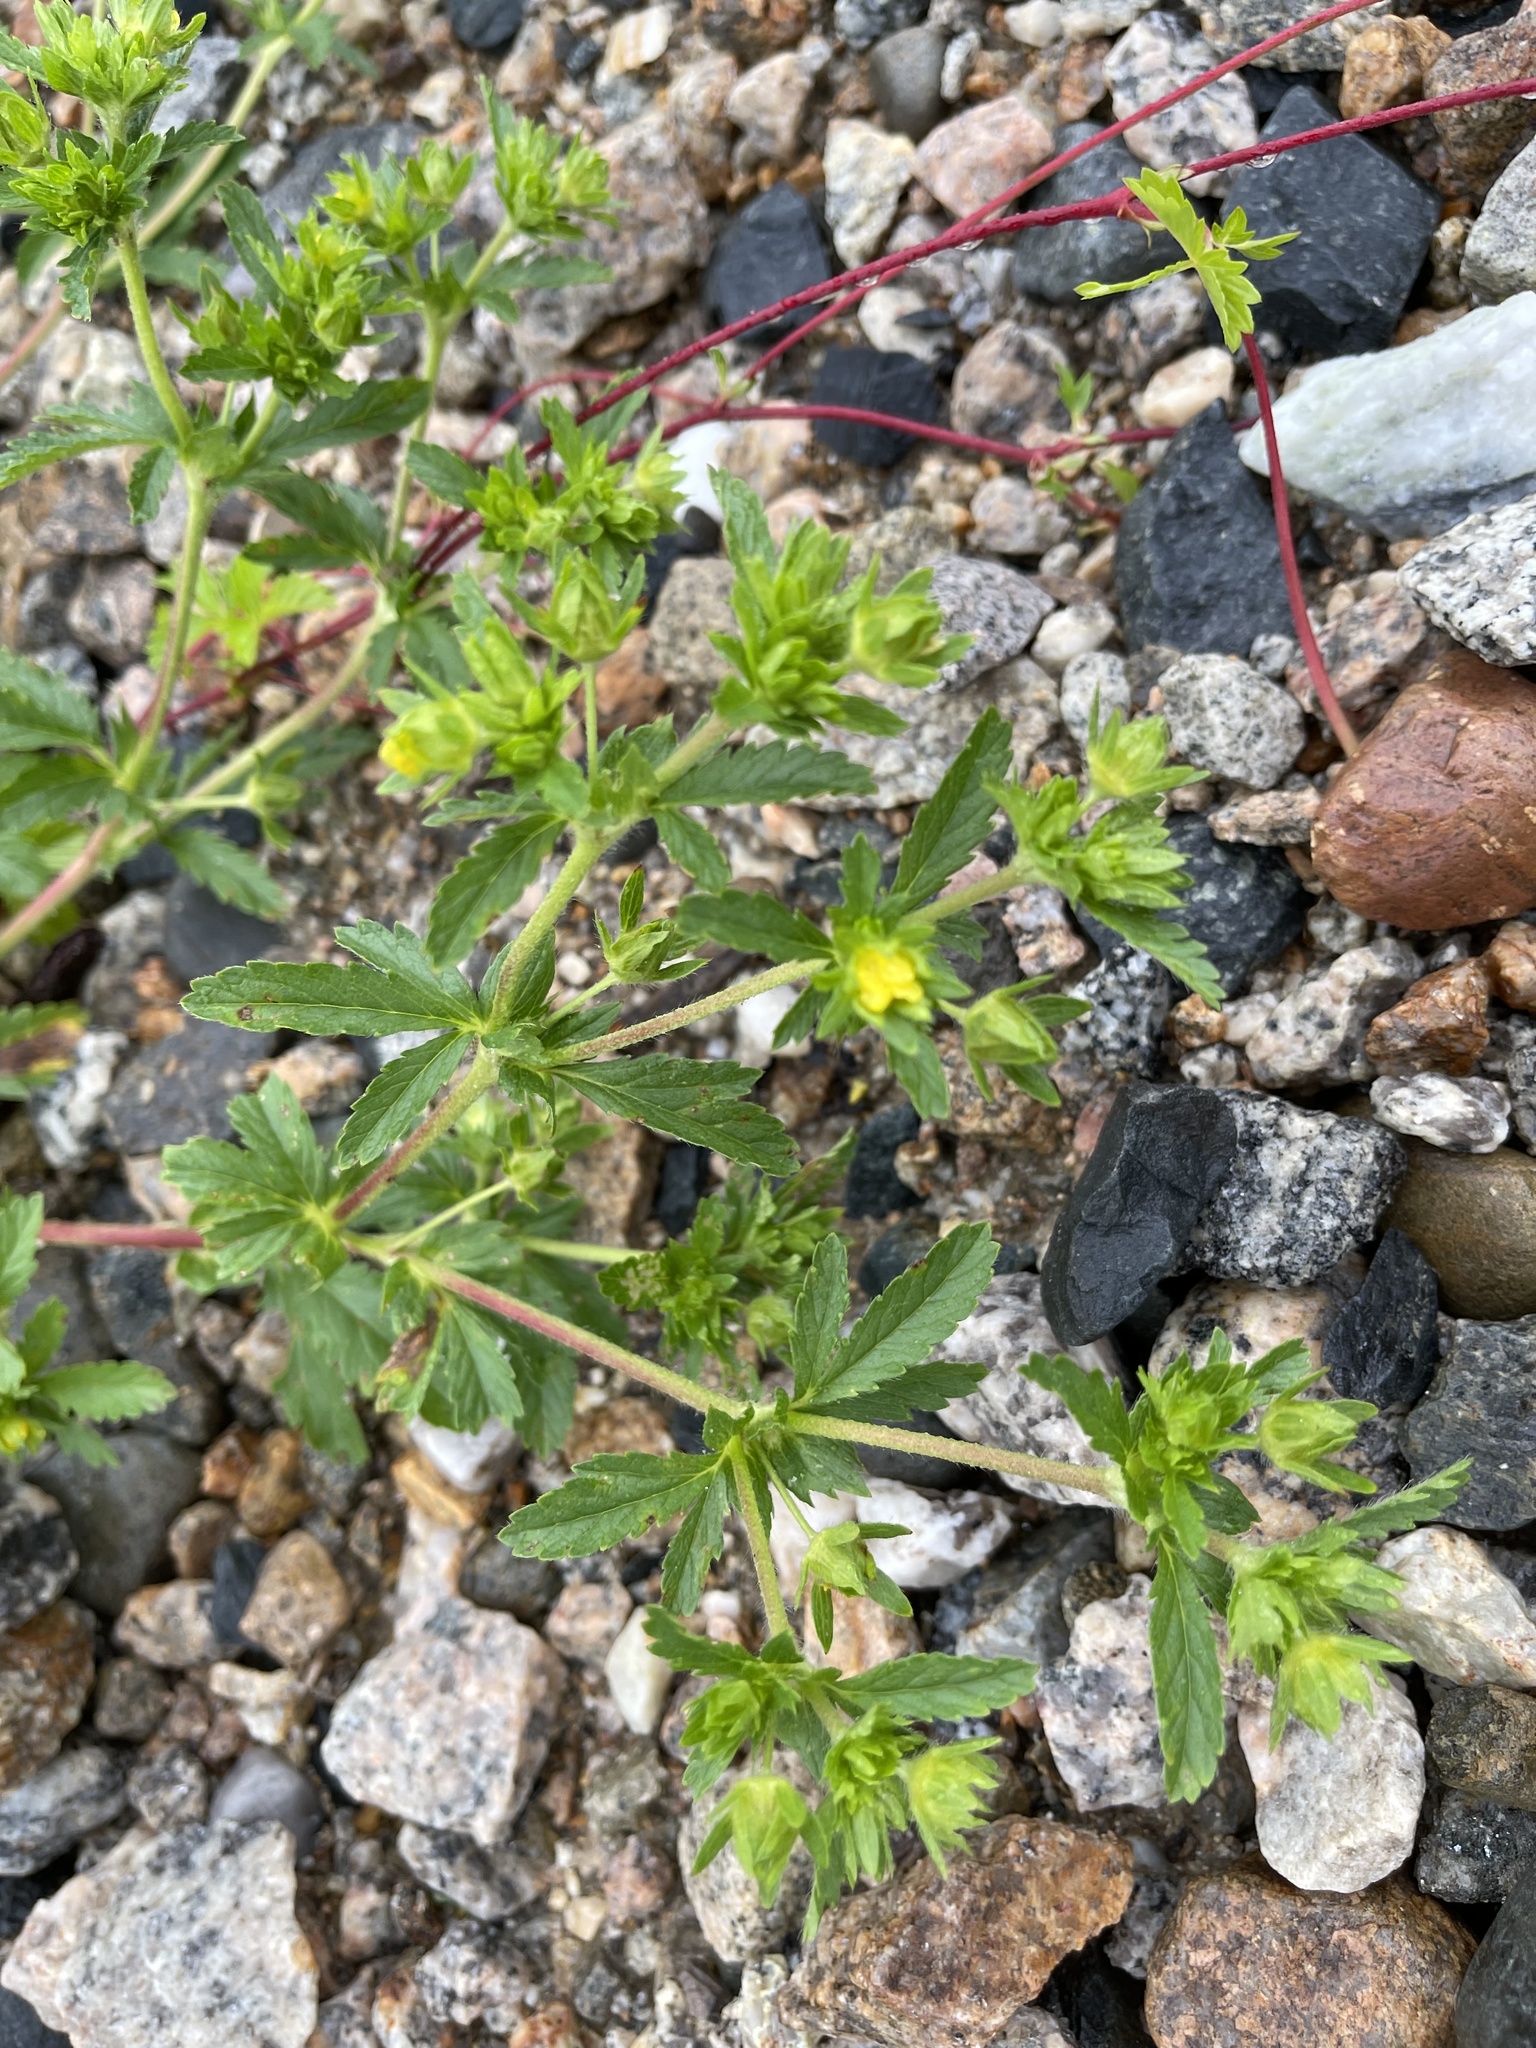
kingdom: Plantae
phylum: Tracheophyta
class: Magnoliopsida
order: Rosales
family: Rosaceae
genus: Potentilla
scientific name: Potentilla norvegica
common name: Ternate-leaved cinquefoil
